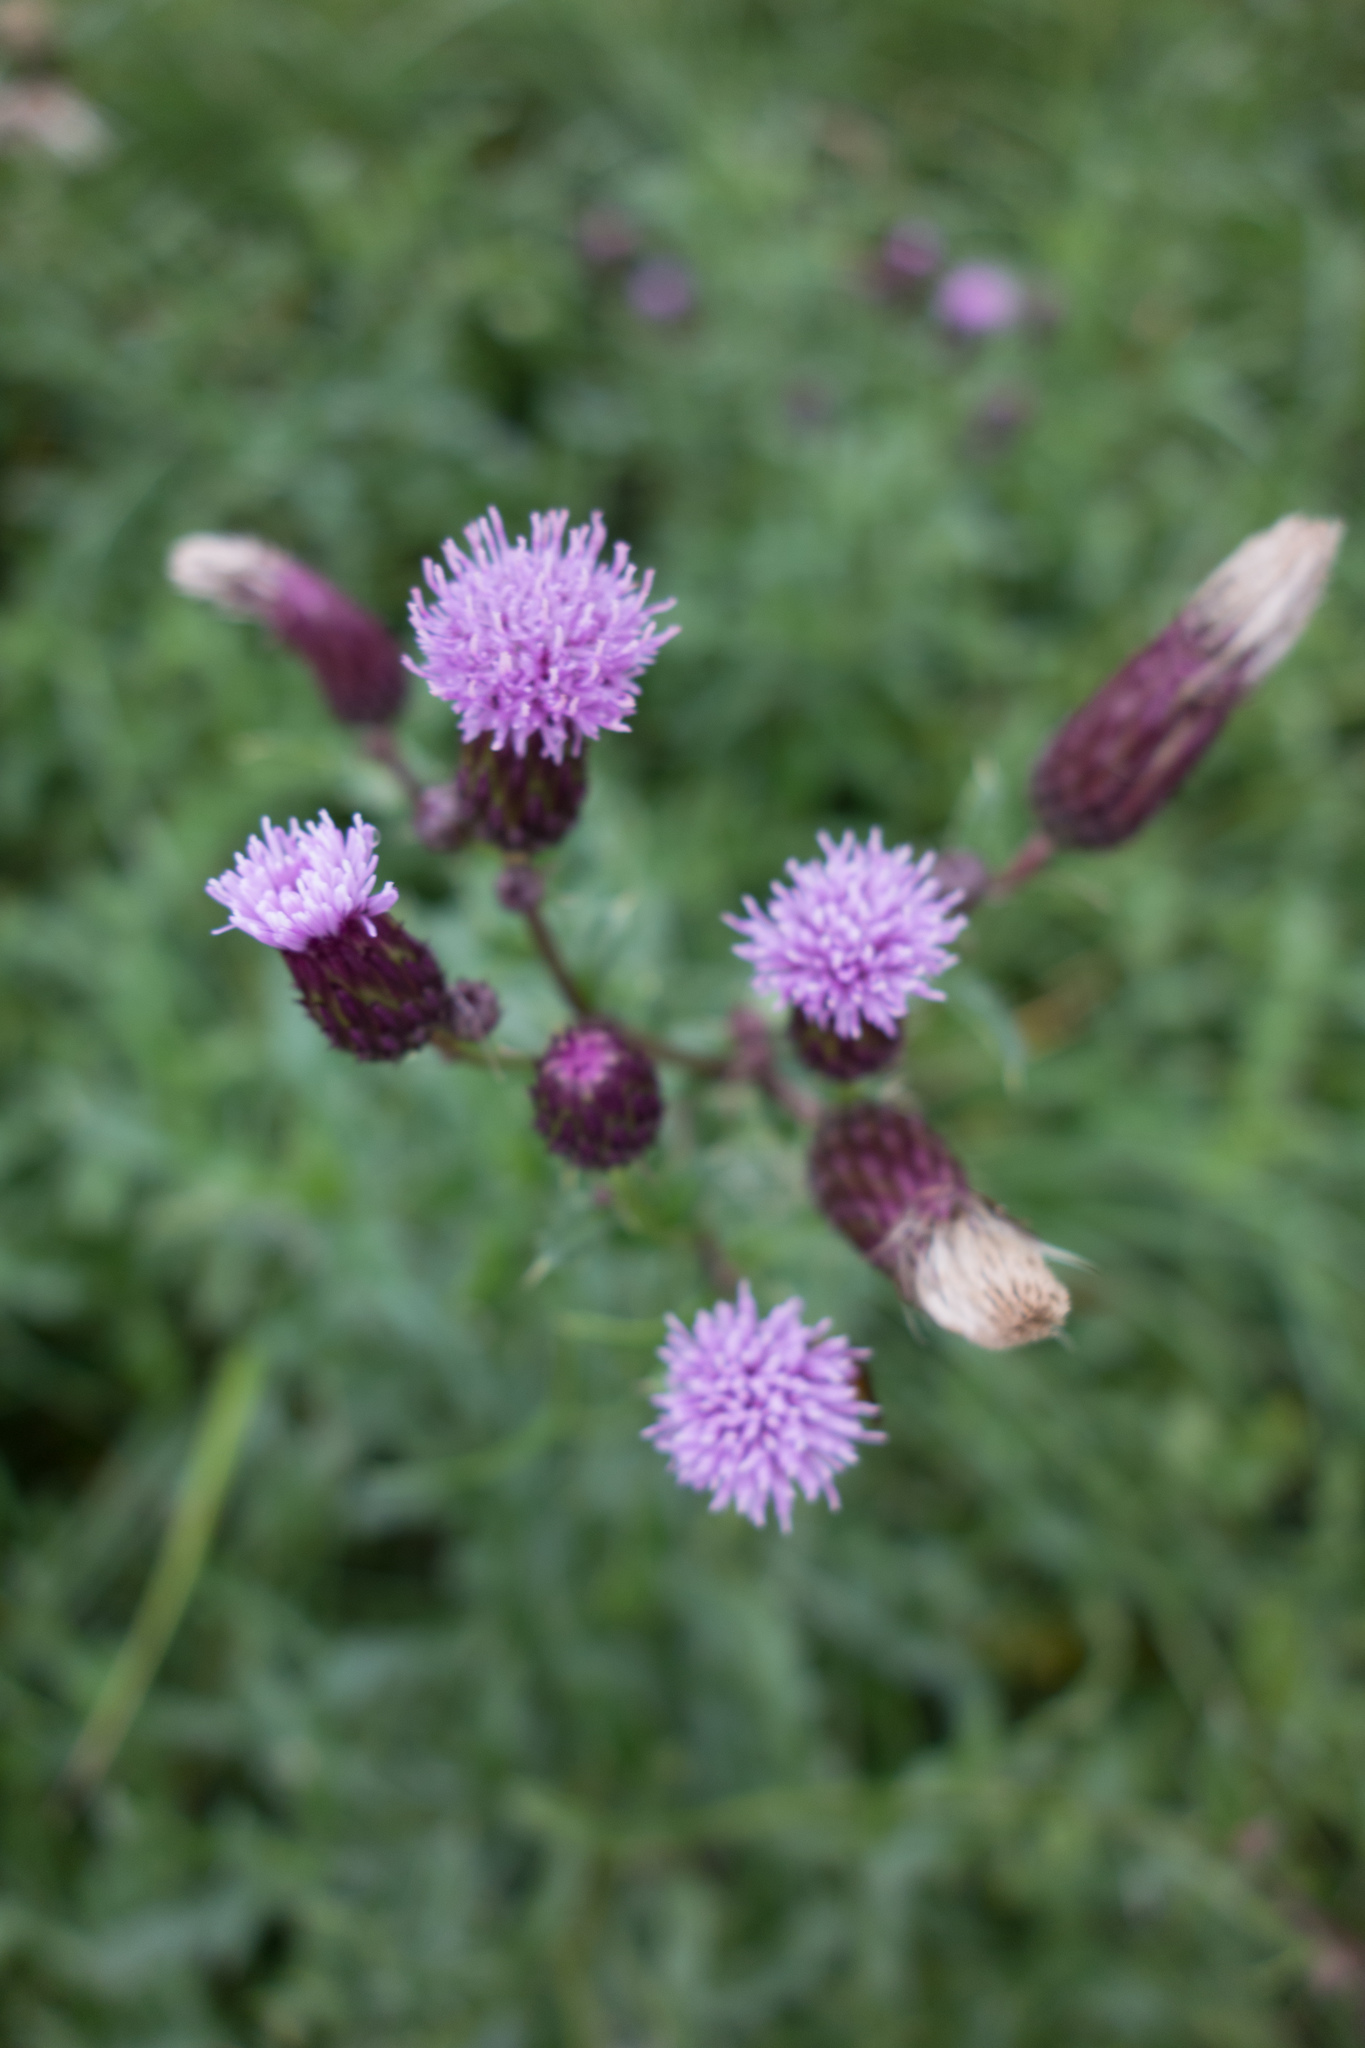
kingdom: Plantae
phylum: Tracheophyta
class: Magnoliopsida
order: Asterales
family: Asteraceae
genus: Cirsium
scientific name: Cirsium arvense
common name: Creeping thistle
